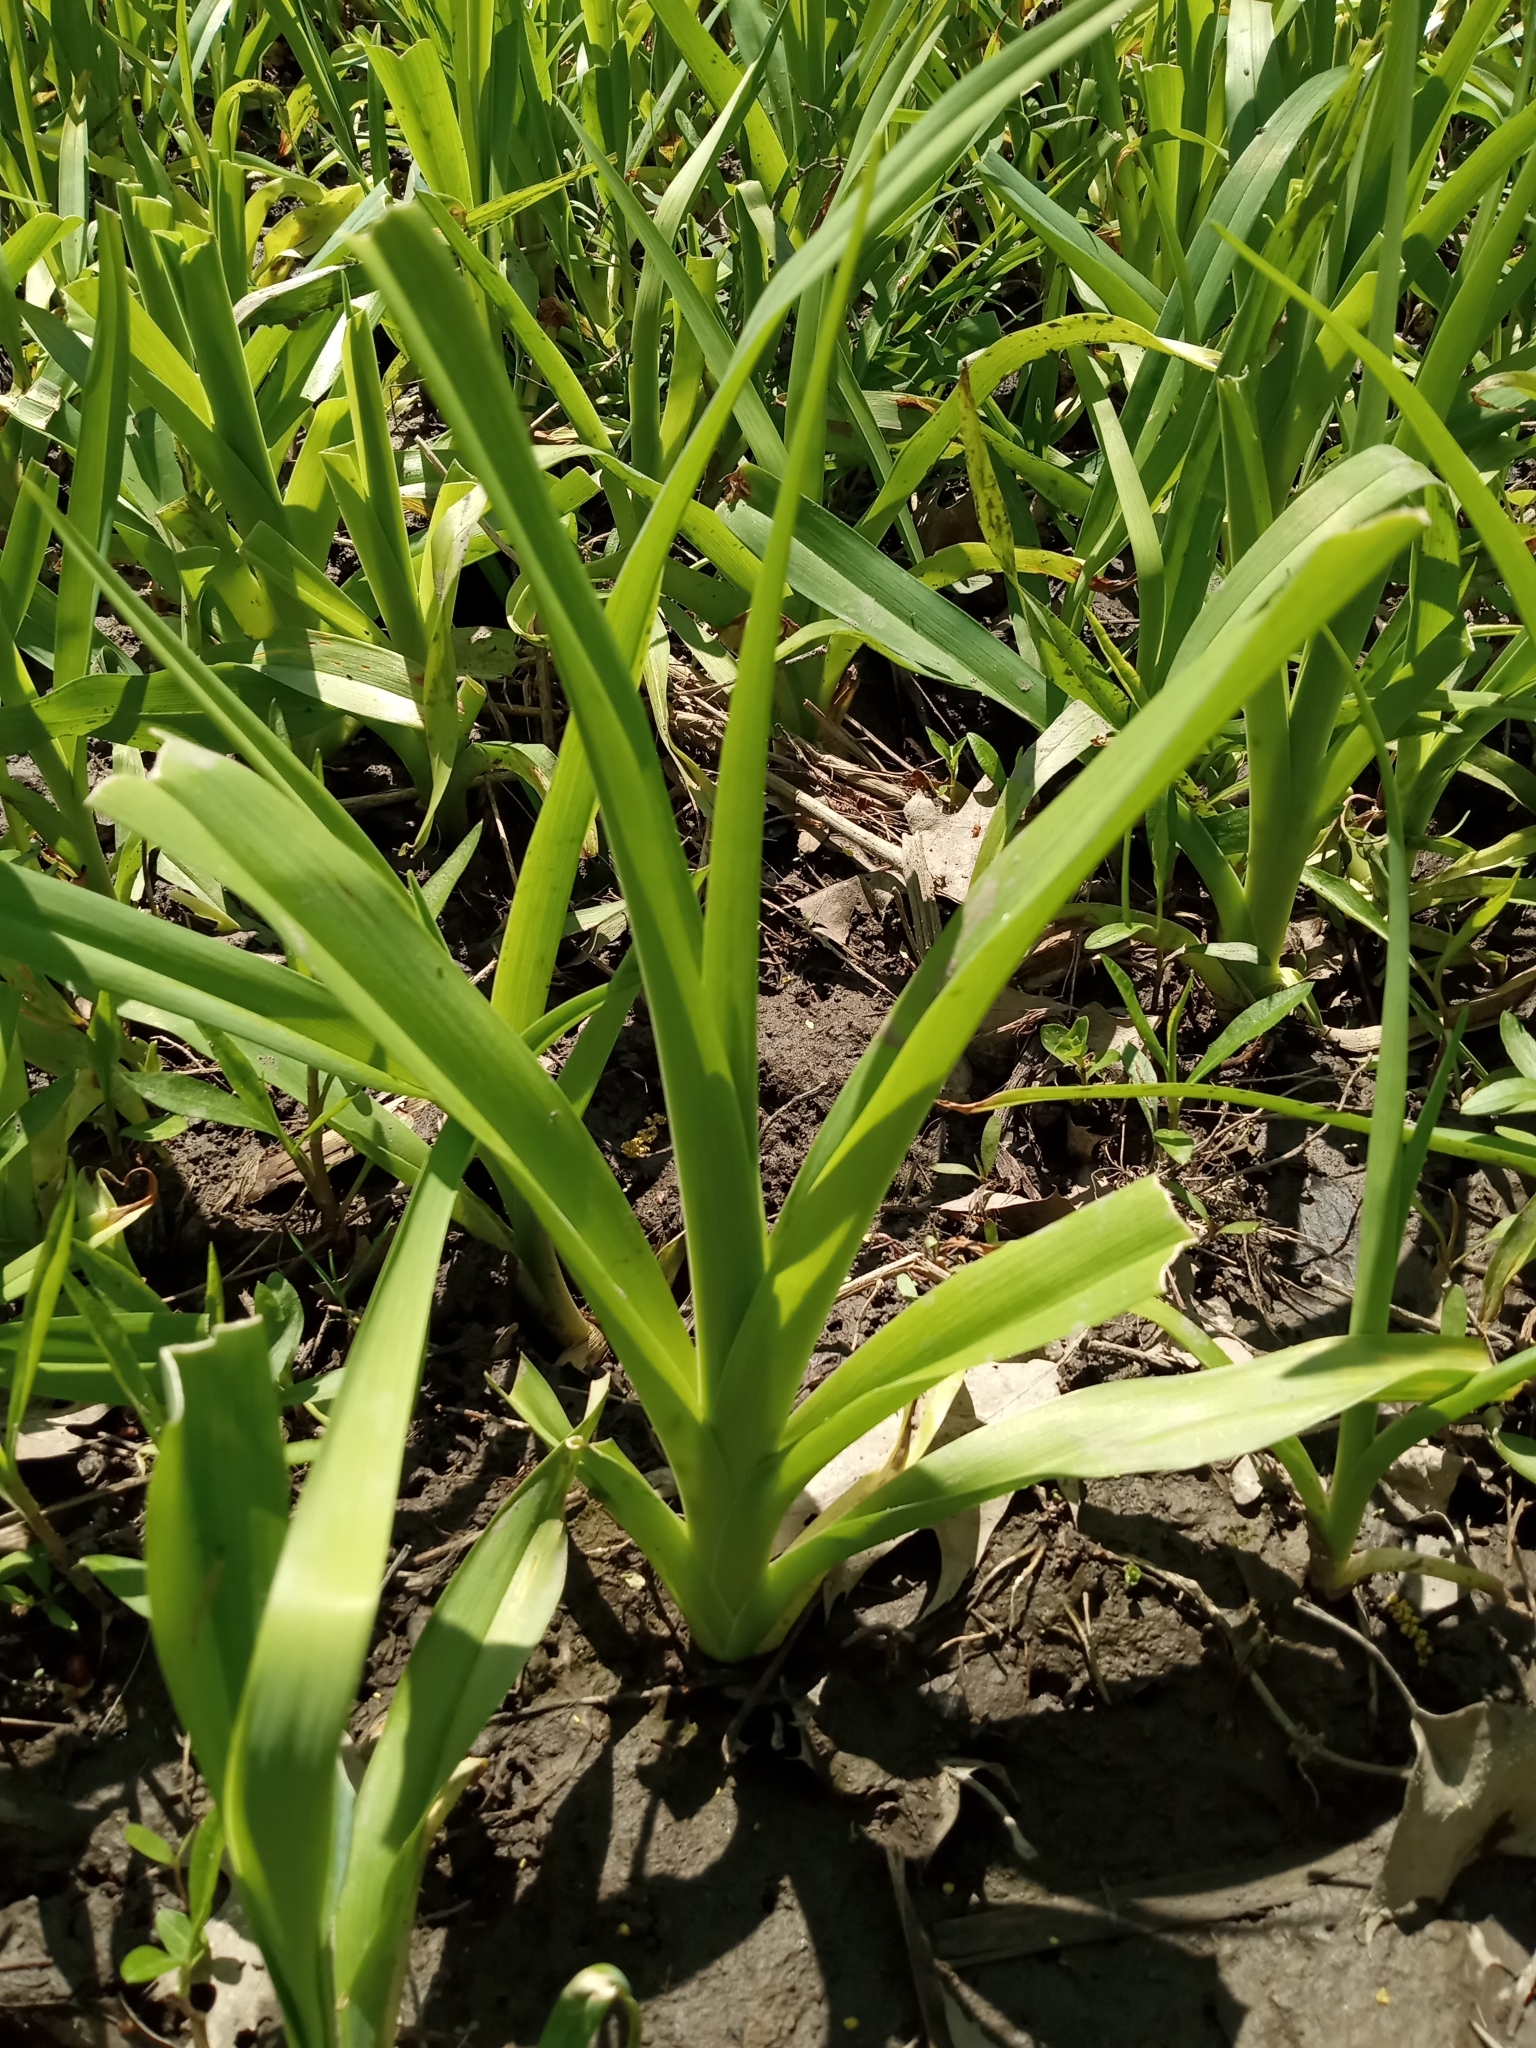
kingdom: Plantae
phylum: Tracheophyta
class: Liliopsida
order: Asparagales
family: Asphodelaceae
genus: Hemerocallis
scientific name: Hemerocallis fulva
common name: Orange day-lily
